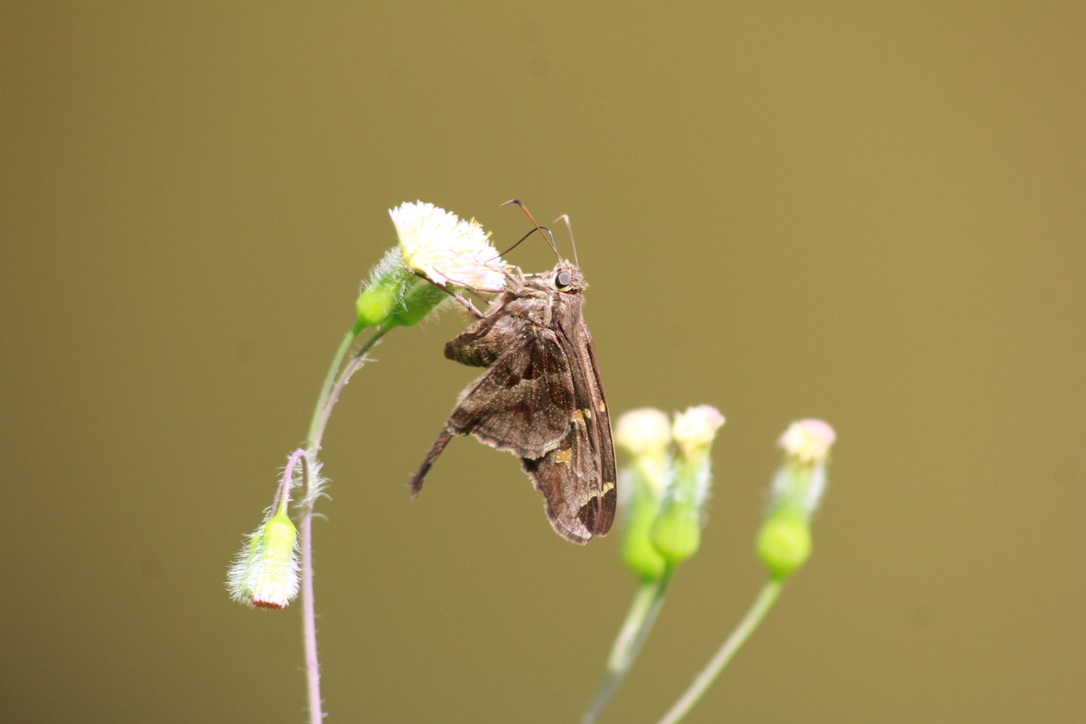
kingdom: Animalia
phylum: Arthropoda
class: Insecta
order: Lepidoptera
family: Hesperiidae
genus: Chioides
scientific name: Chioides catillus
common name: Silverbanded skipper
